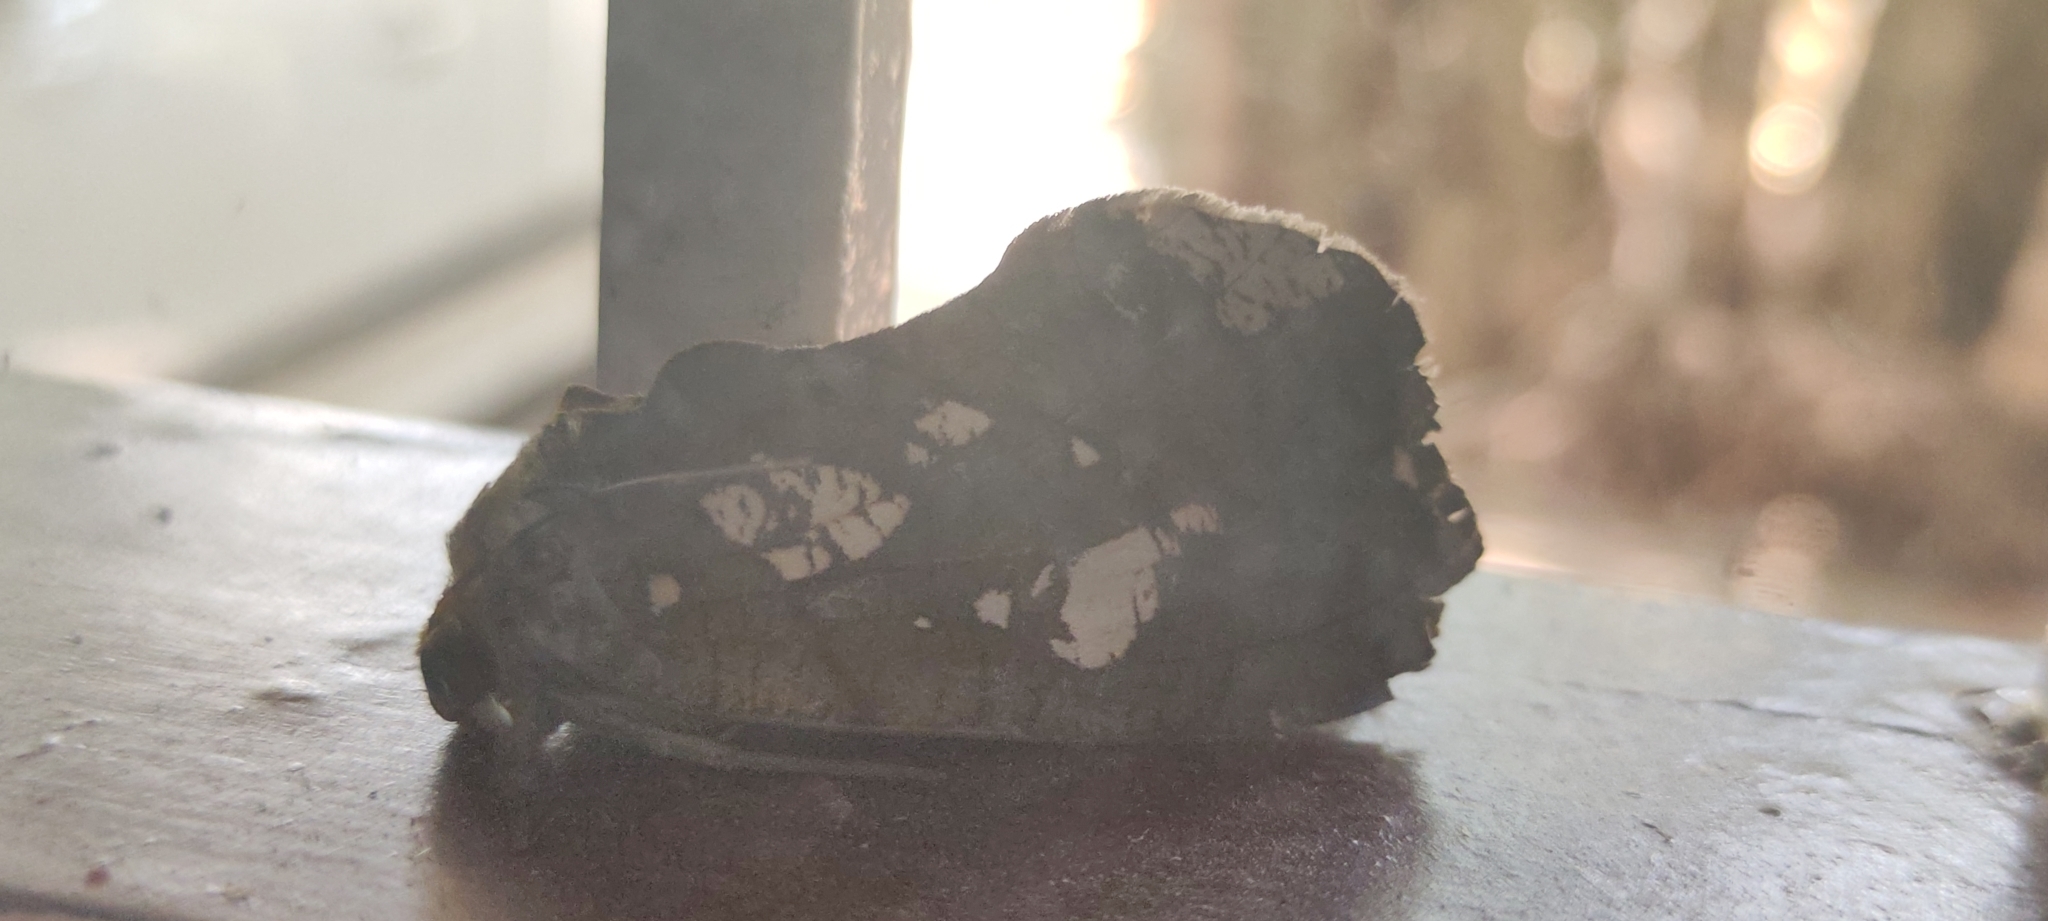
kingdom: Animalia
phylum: Arthropoda
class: Insecta
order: Lepidoptera
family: Erebidae
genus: Eudocima
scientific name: Eudocima hypermnestra
